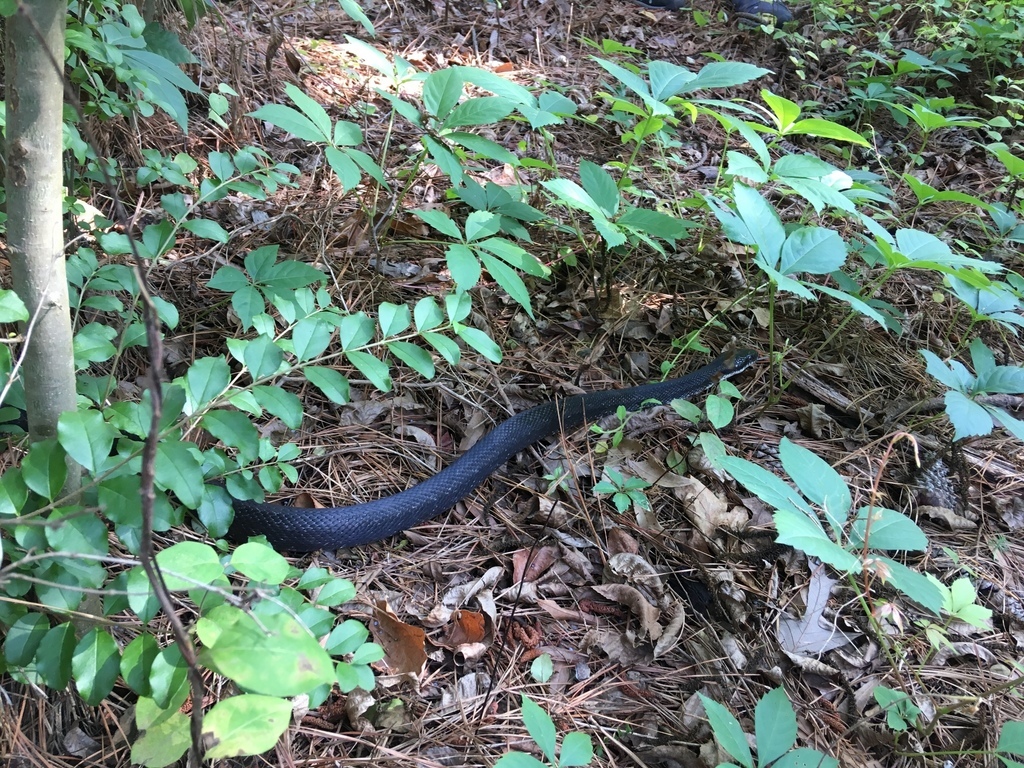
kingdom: Animalia
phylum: Chordata
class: Squamata
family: Colubridae
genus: Pantherophis
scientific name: Pantherophis alleghaniensis
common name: Eastern rat snake
